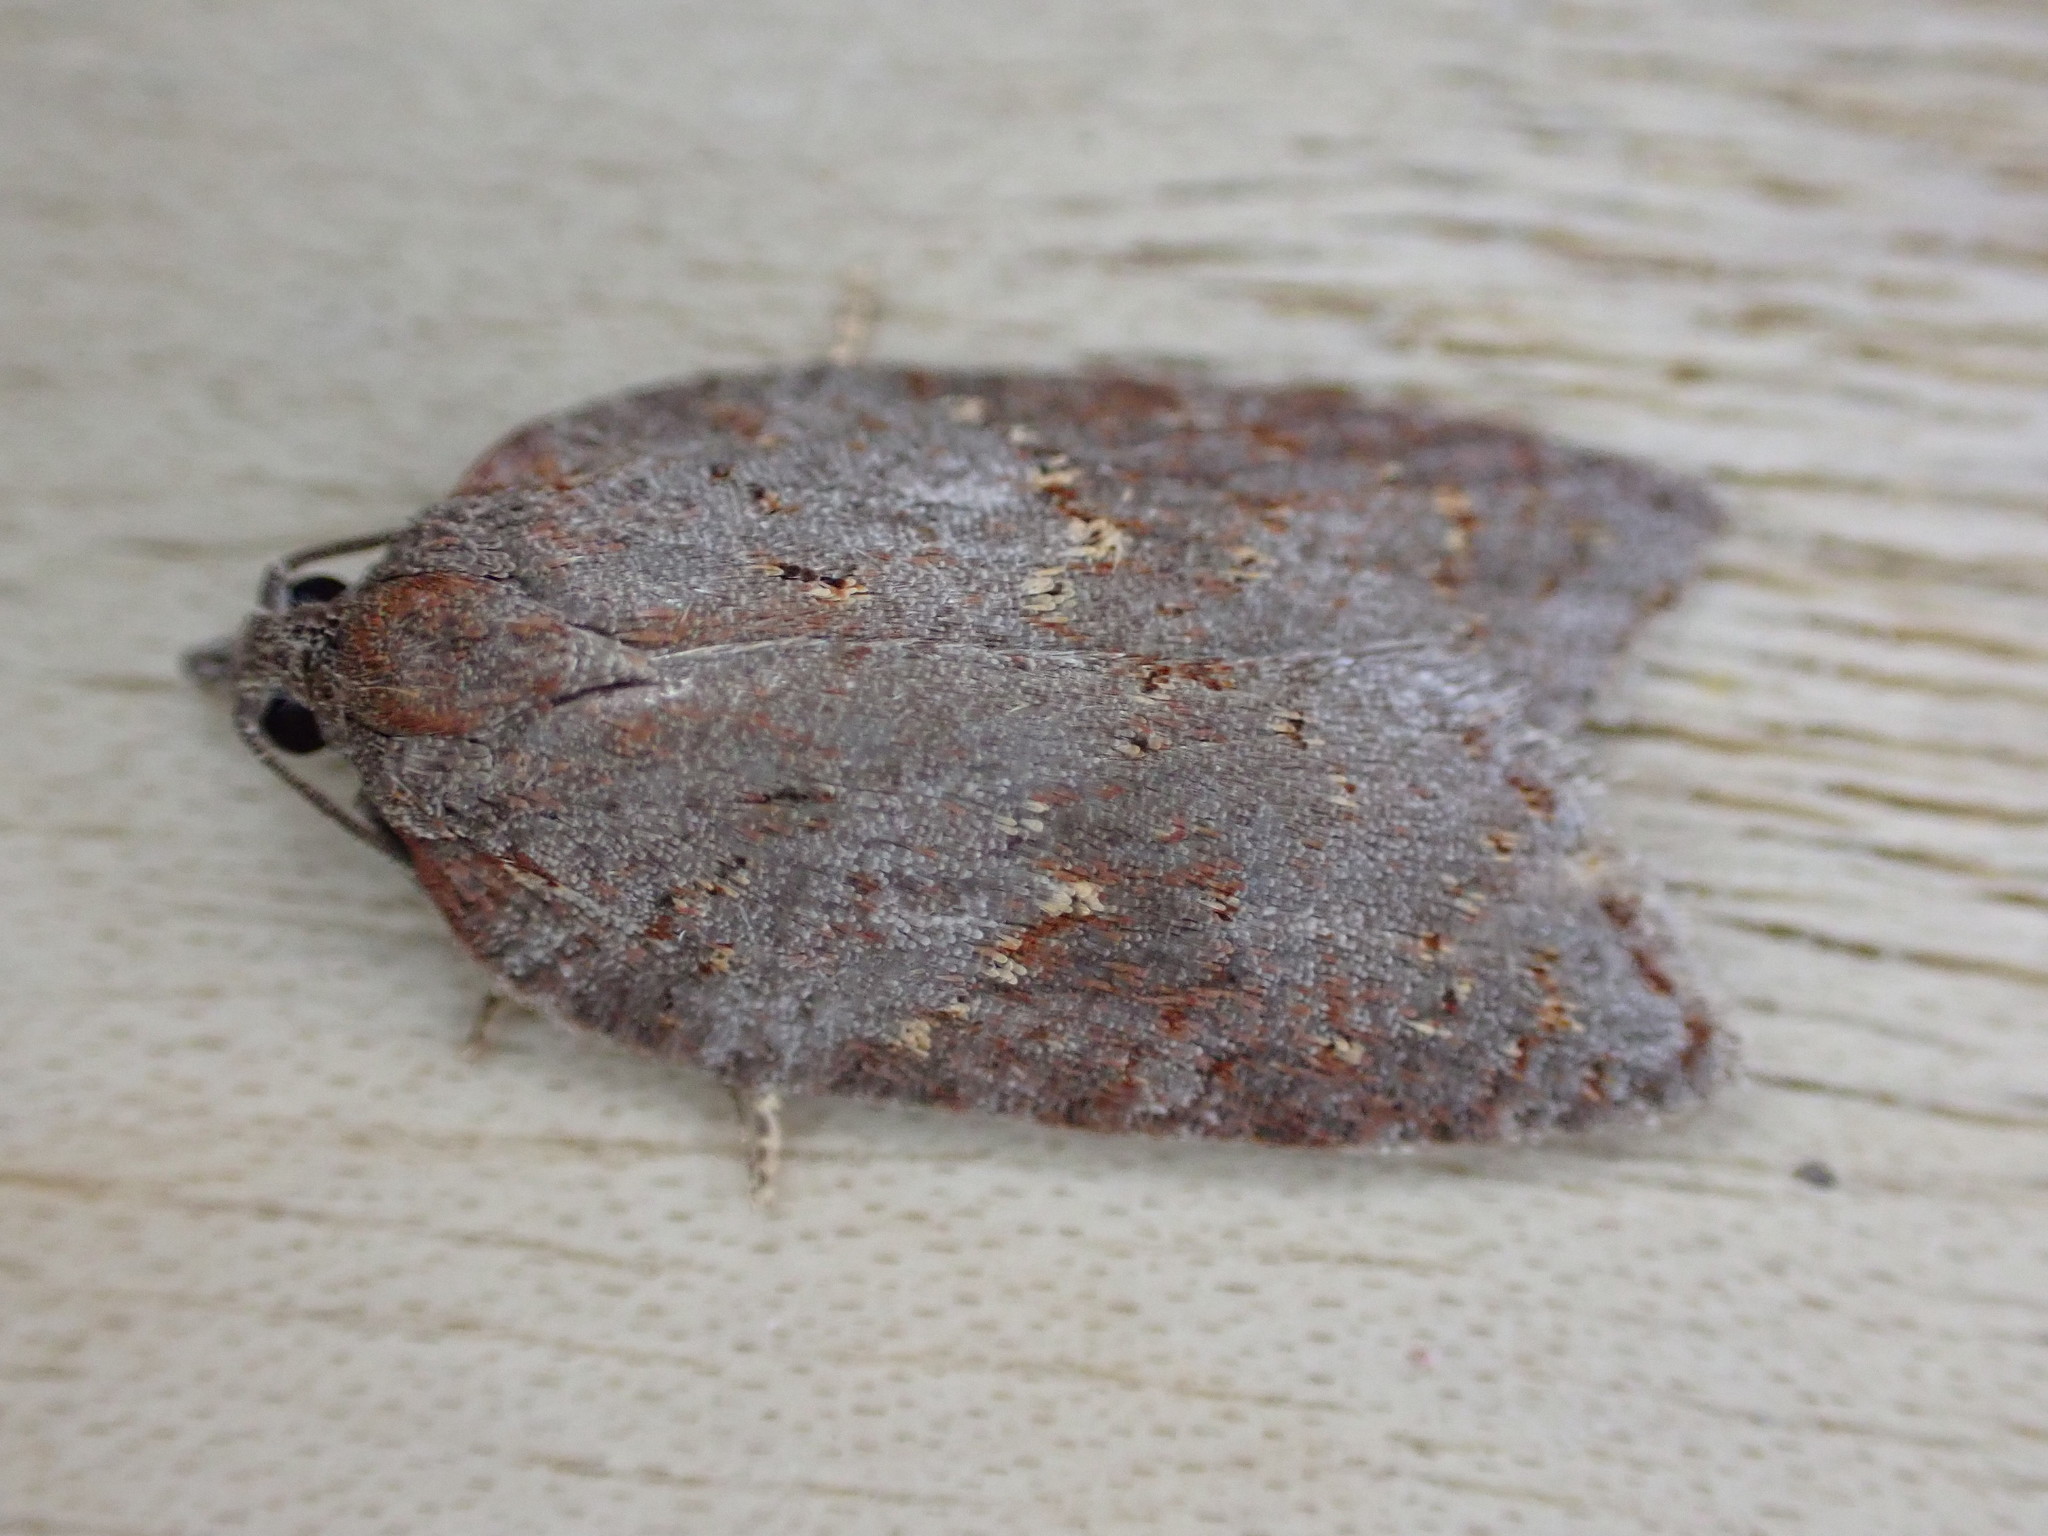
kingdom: Animalia
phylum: Arthropoda
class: Insecta
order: Lepidoptera
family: Tortricidae
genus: Acleris
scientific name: Acleris sparsana
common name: Ashy button
